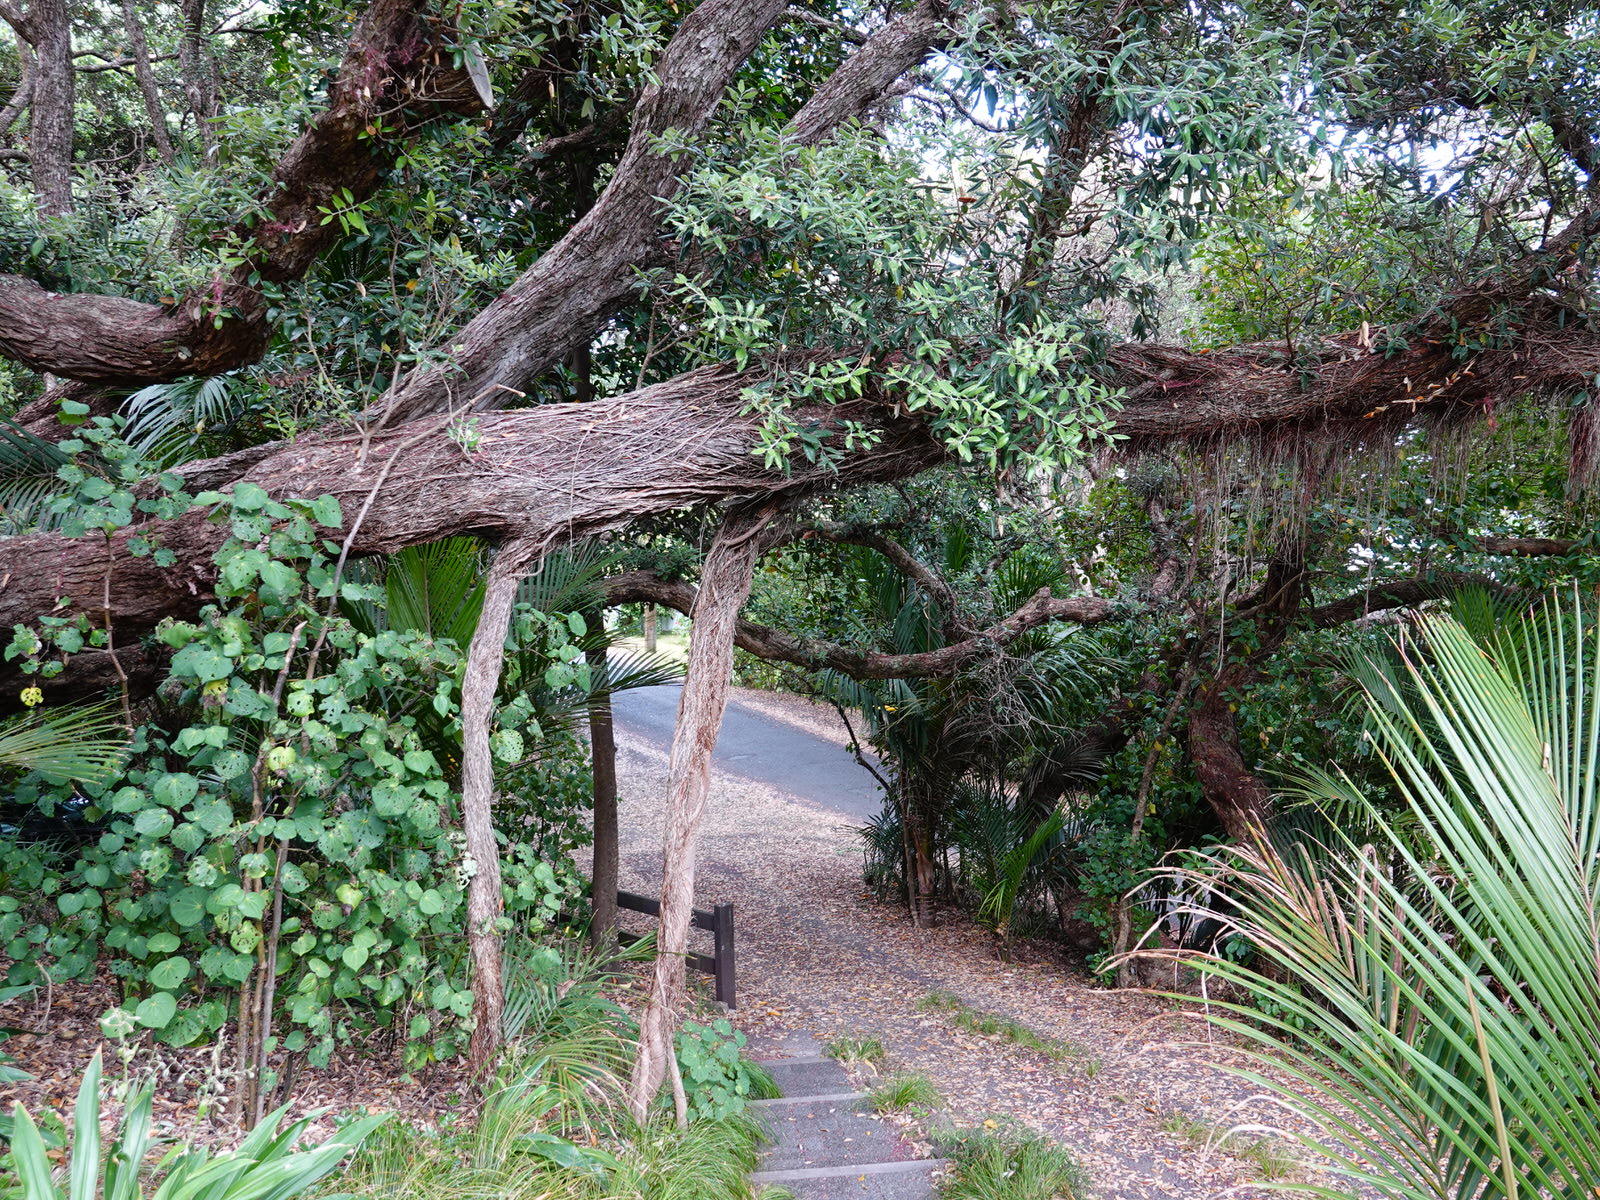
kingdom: Plantae
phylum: Tracheophyta
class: Magnoliopsida
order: Myrtales
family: Myrtaceae
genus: Metrosideros
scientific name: Metrosideros excelsa
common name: New zealand christmastree
